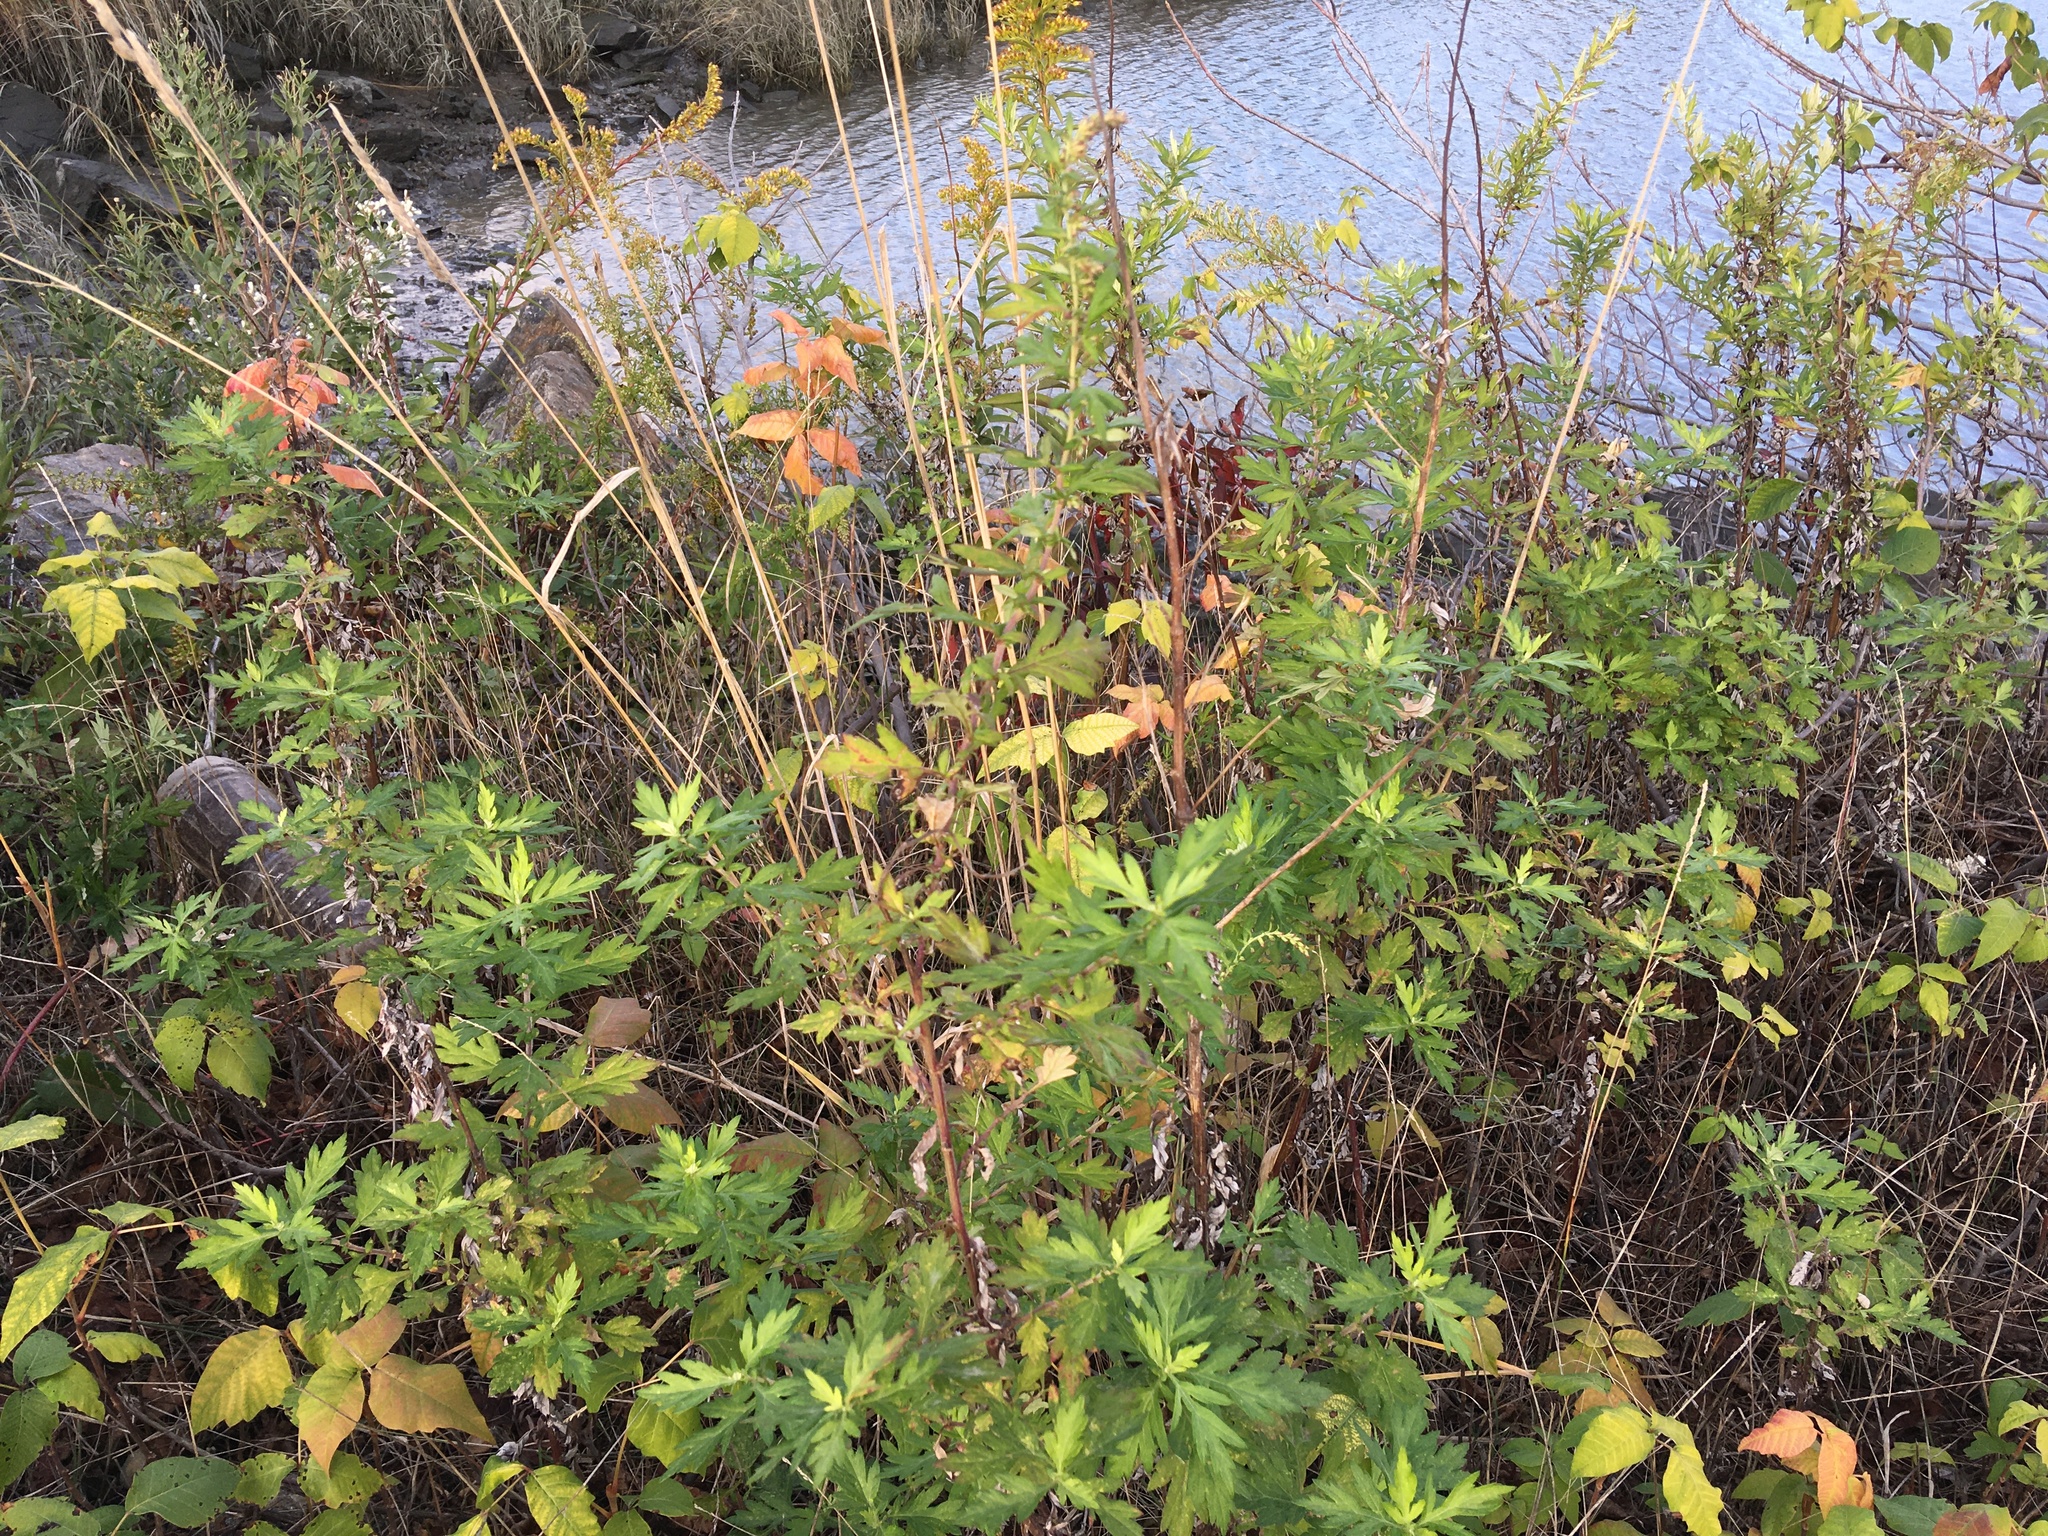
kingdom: Plantae
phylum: Tracheophyta
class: Magnoliopsida
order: Asterales
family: Asteraceae
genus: Artemisia
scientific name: Artemisia vulgaris
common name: Mugwort
